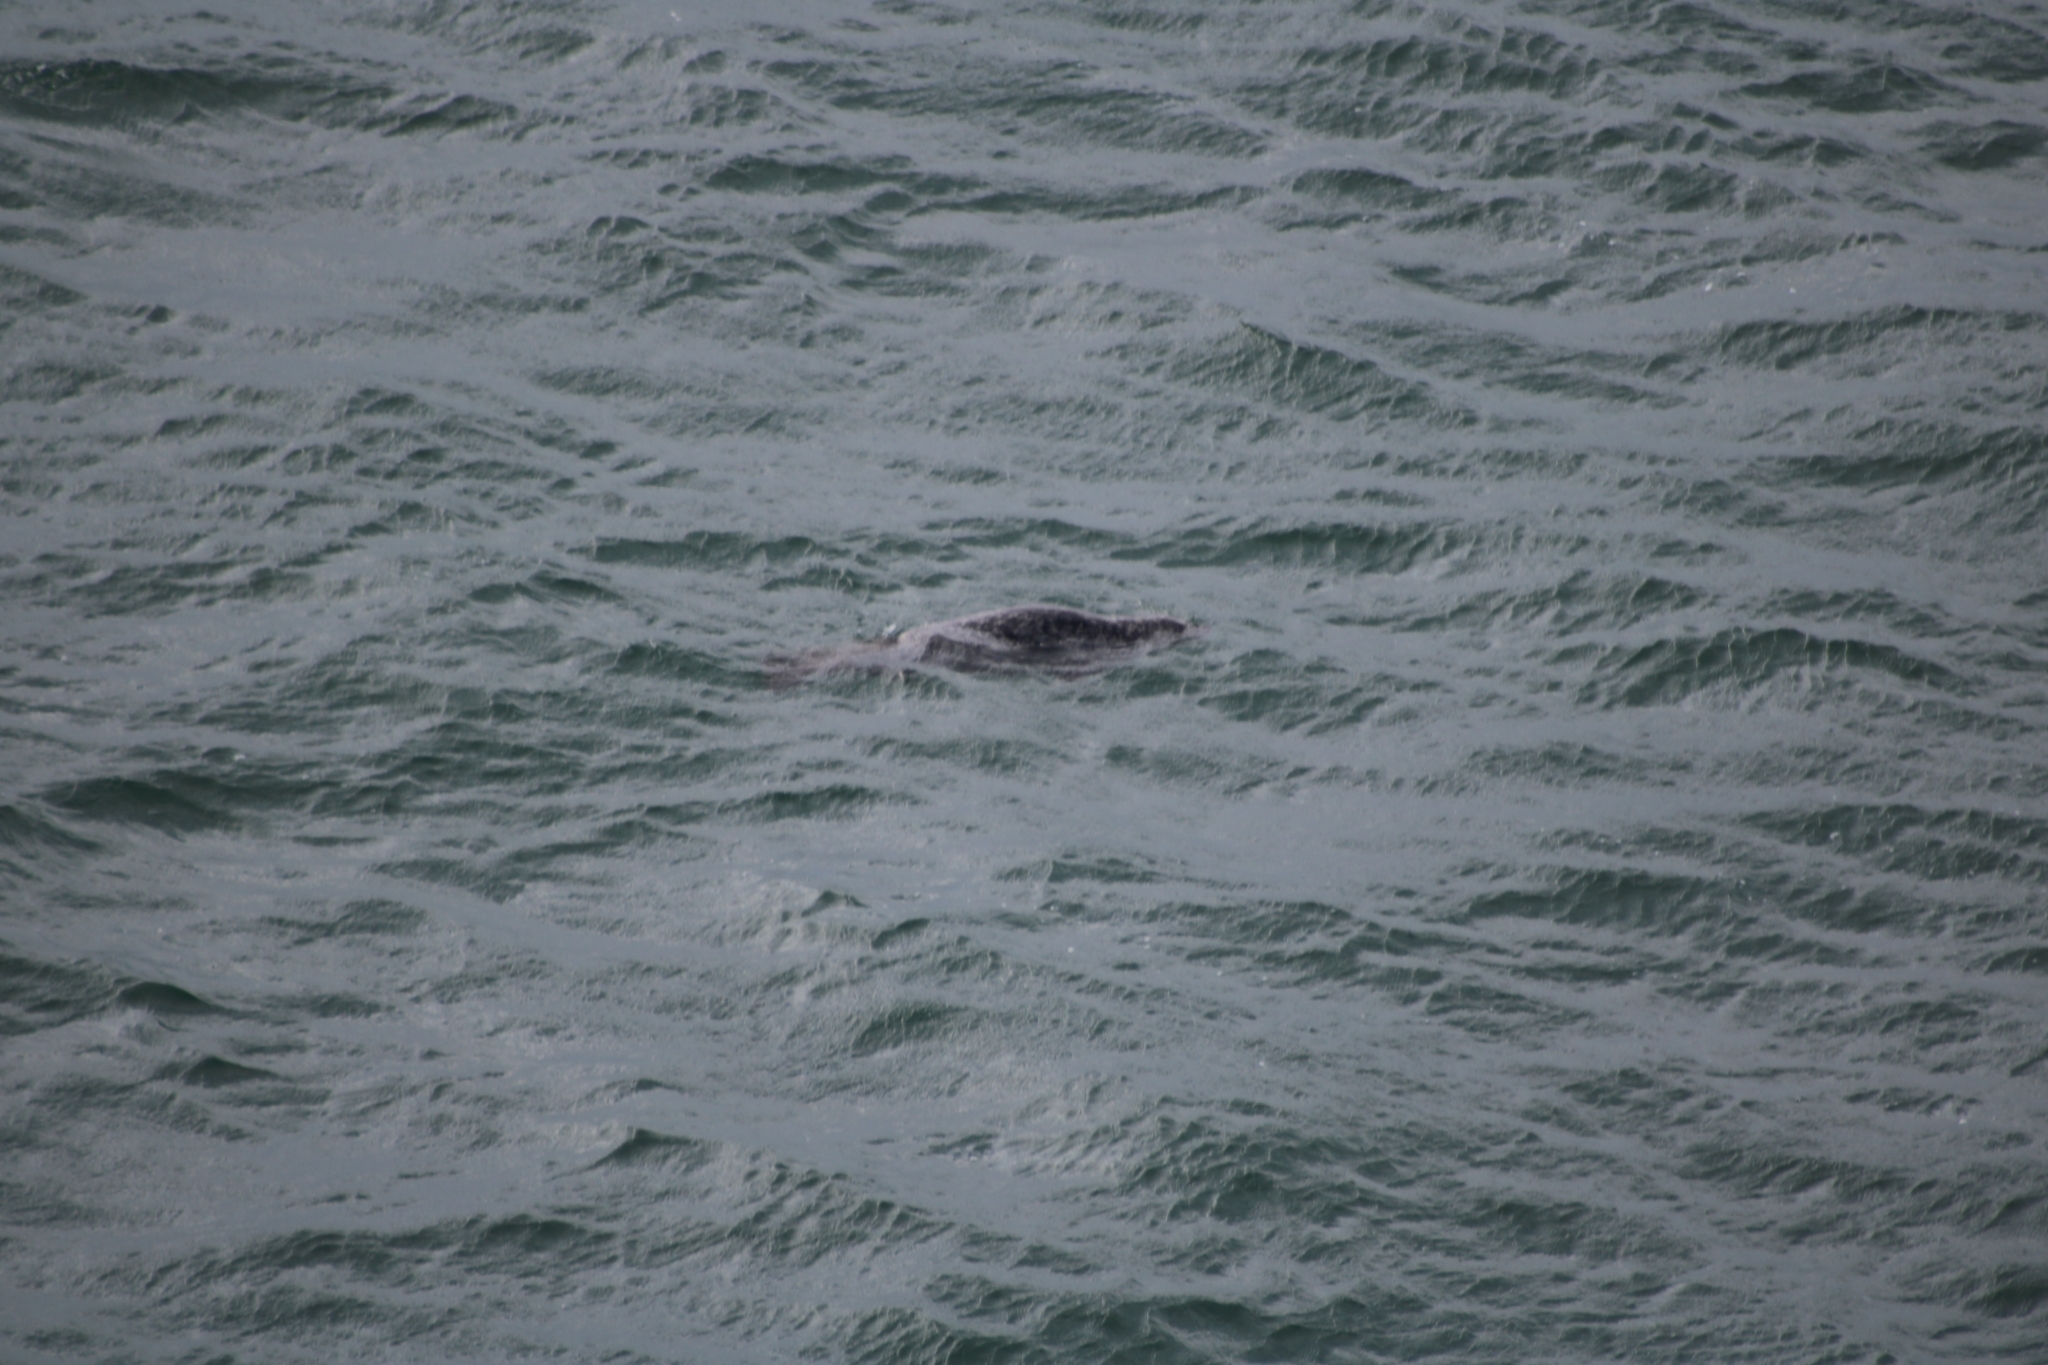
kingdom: Animalia
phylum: Chordata
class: Mammalia
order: Carnivora
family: Phocidae
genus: Halichoerus
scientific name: Halichoerus grypus
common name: Grey seal
